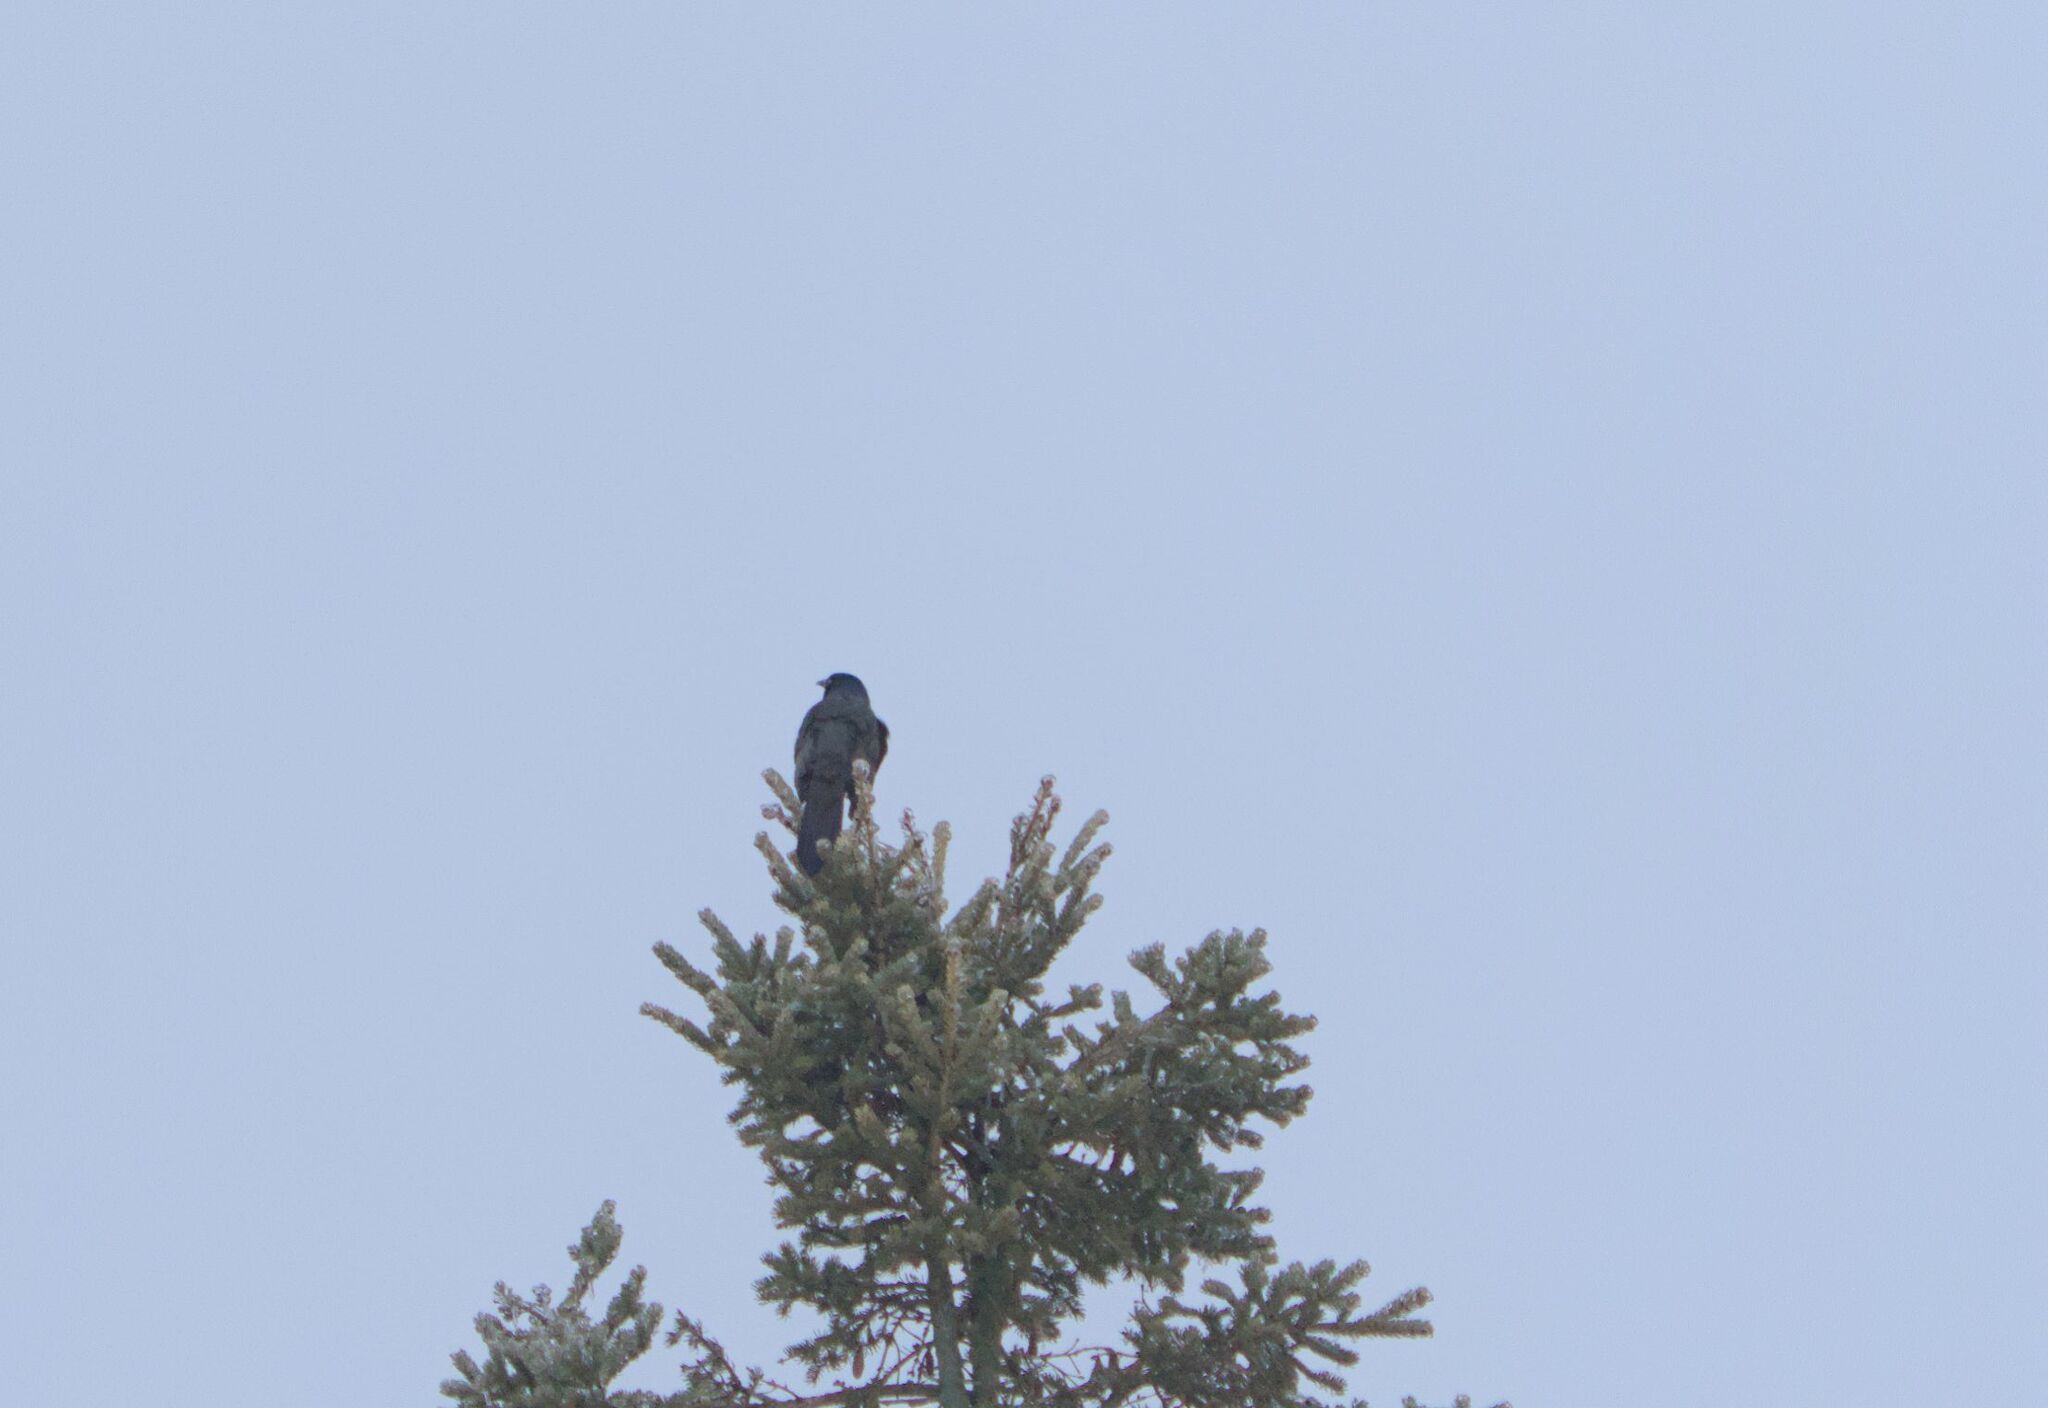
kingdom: Animalia
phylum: Chordata
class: Aves
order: Passeriformes
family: Icteridae
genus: Quiscalus
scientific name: Quiscalus quiscula
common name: Common grackle
